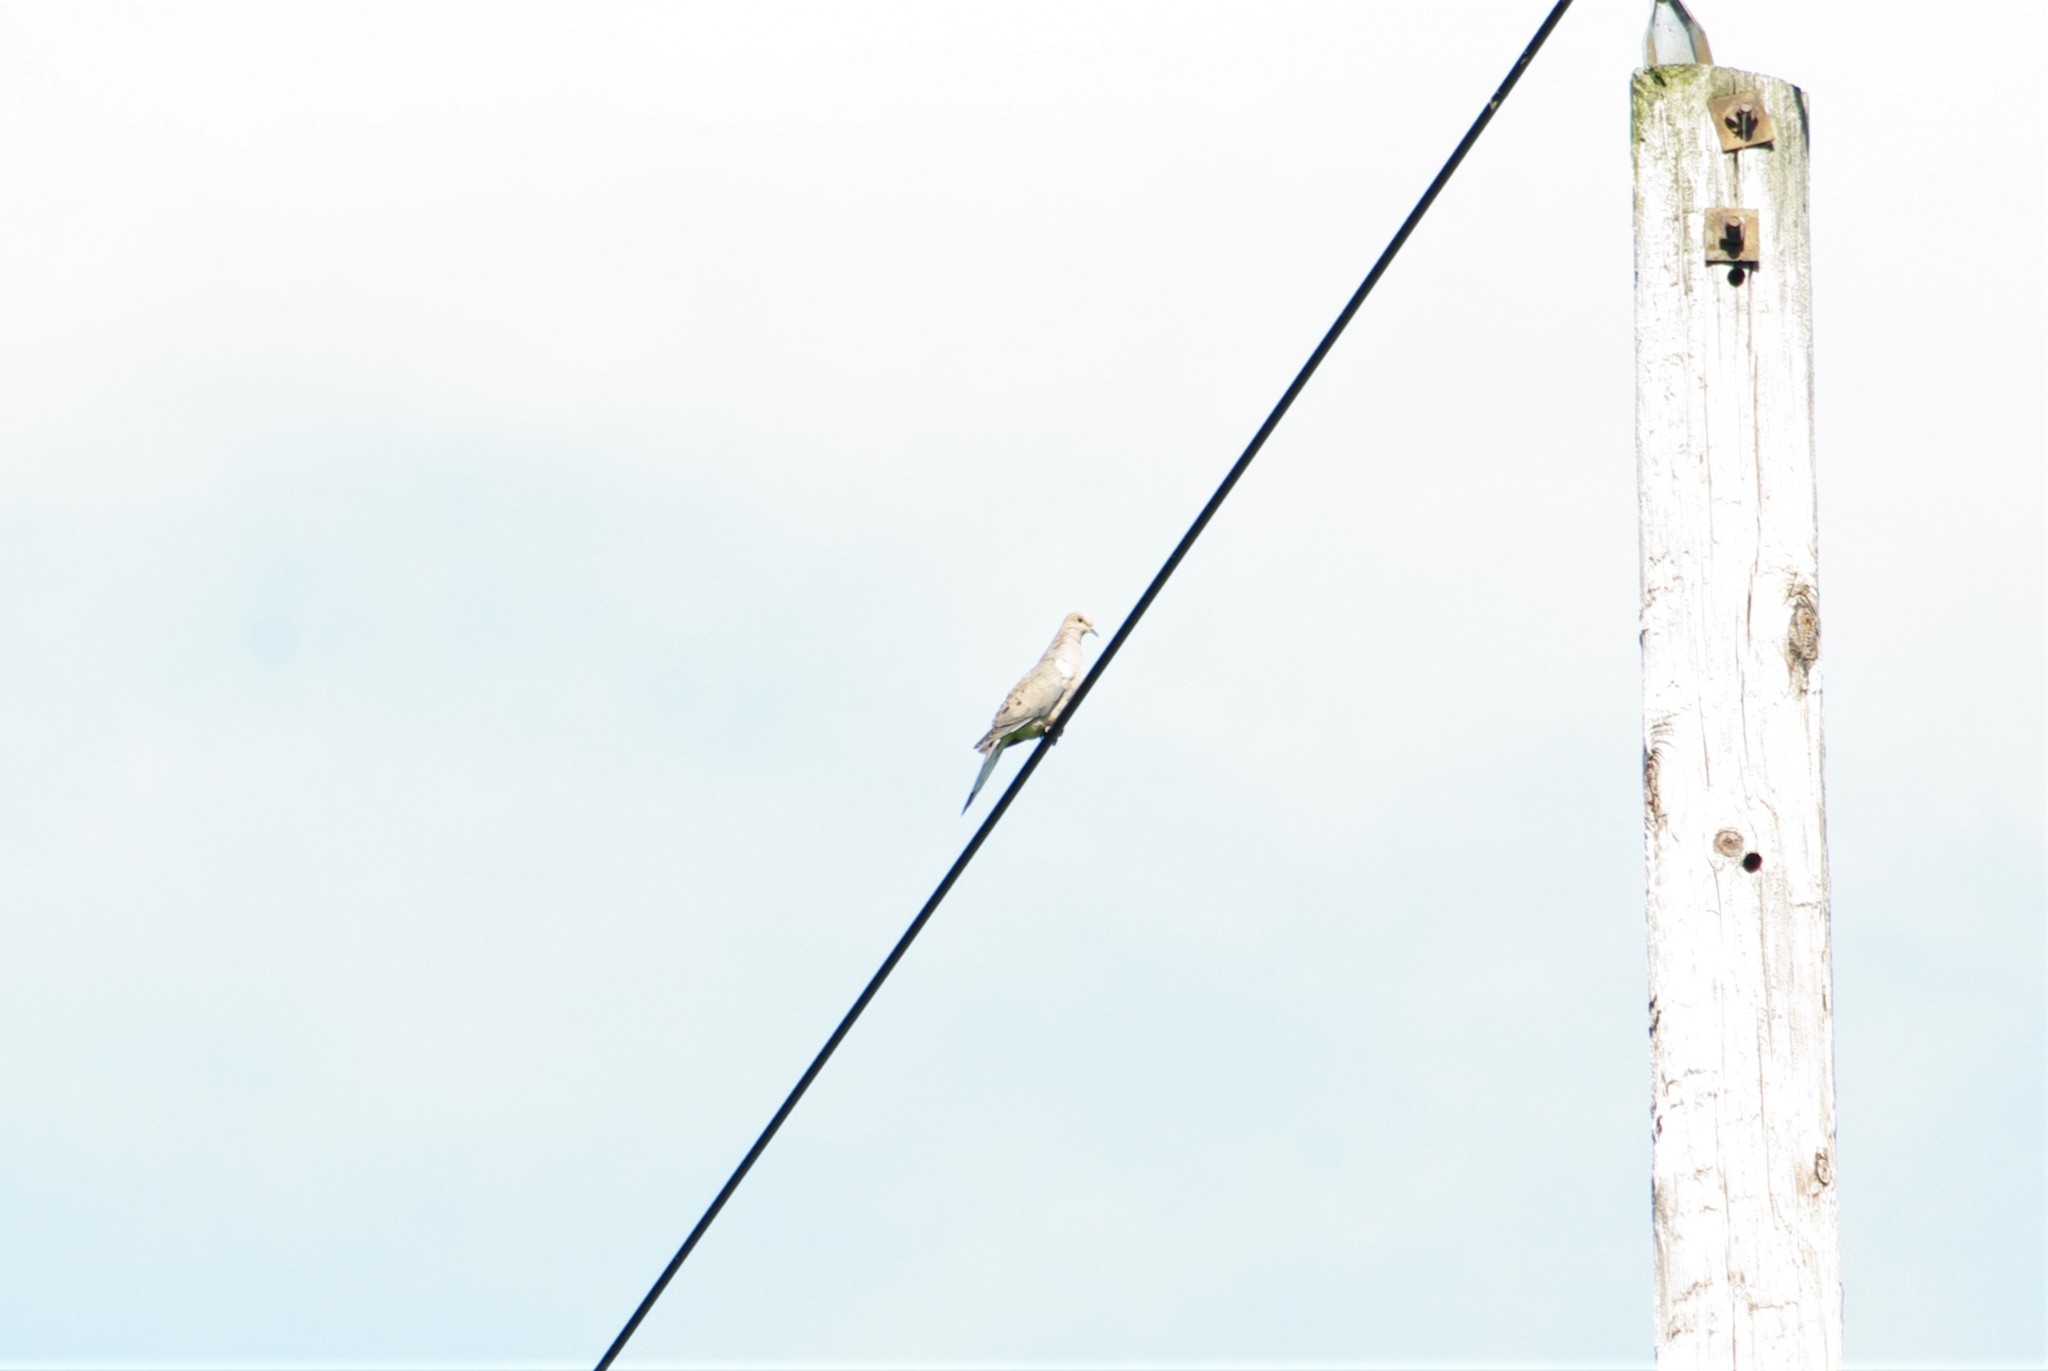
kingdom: Animalia
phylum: Chordata
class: Aves
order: Columbiformes
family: Columbidae
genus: Zenaida
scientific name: Zenaida macroura
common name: Mourning dove
